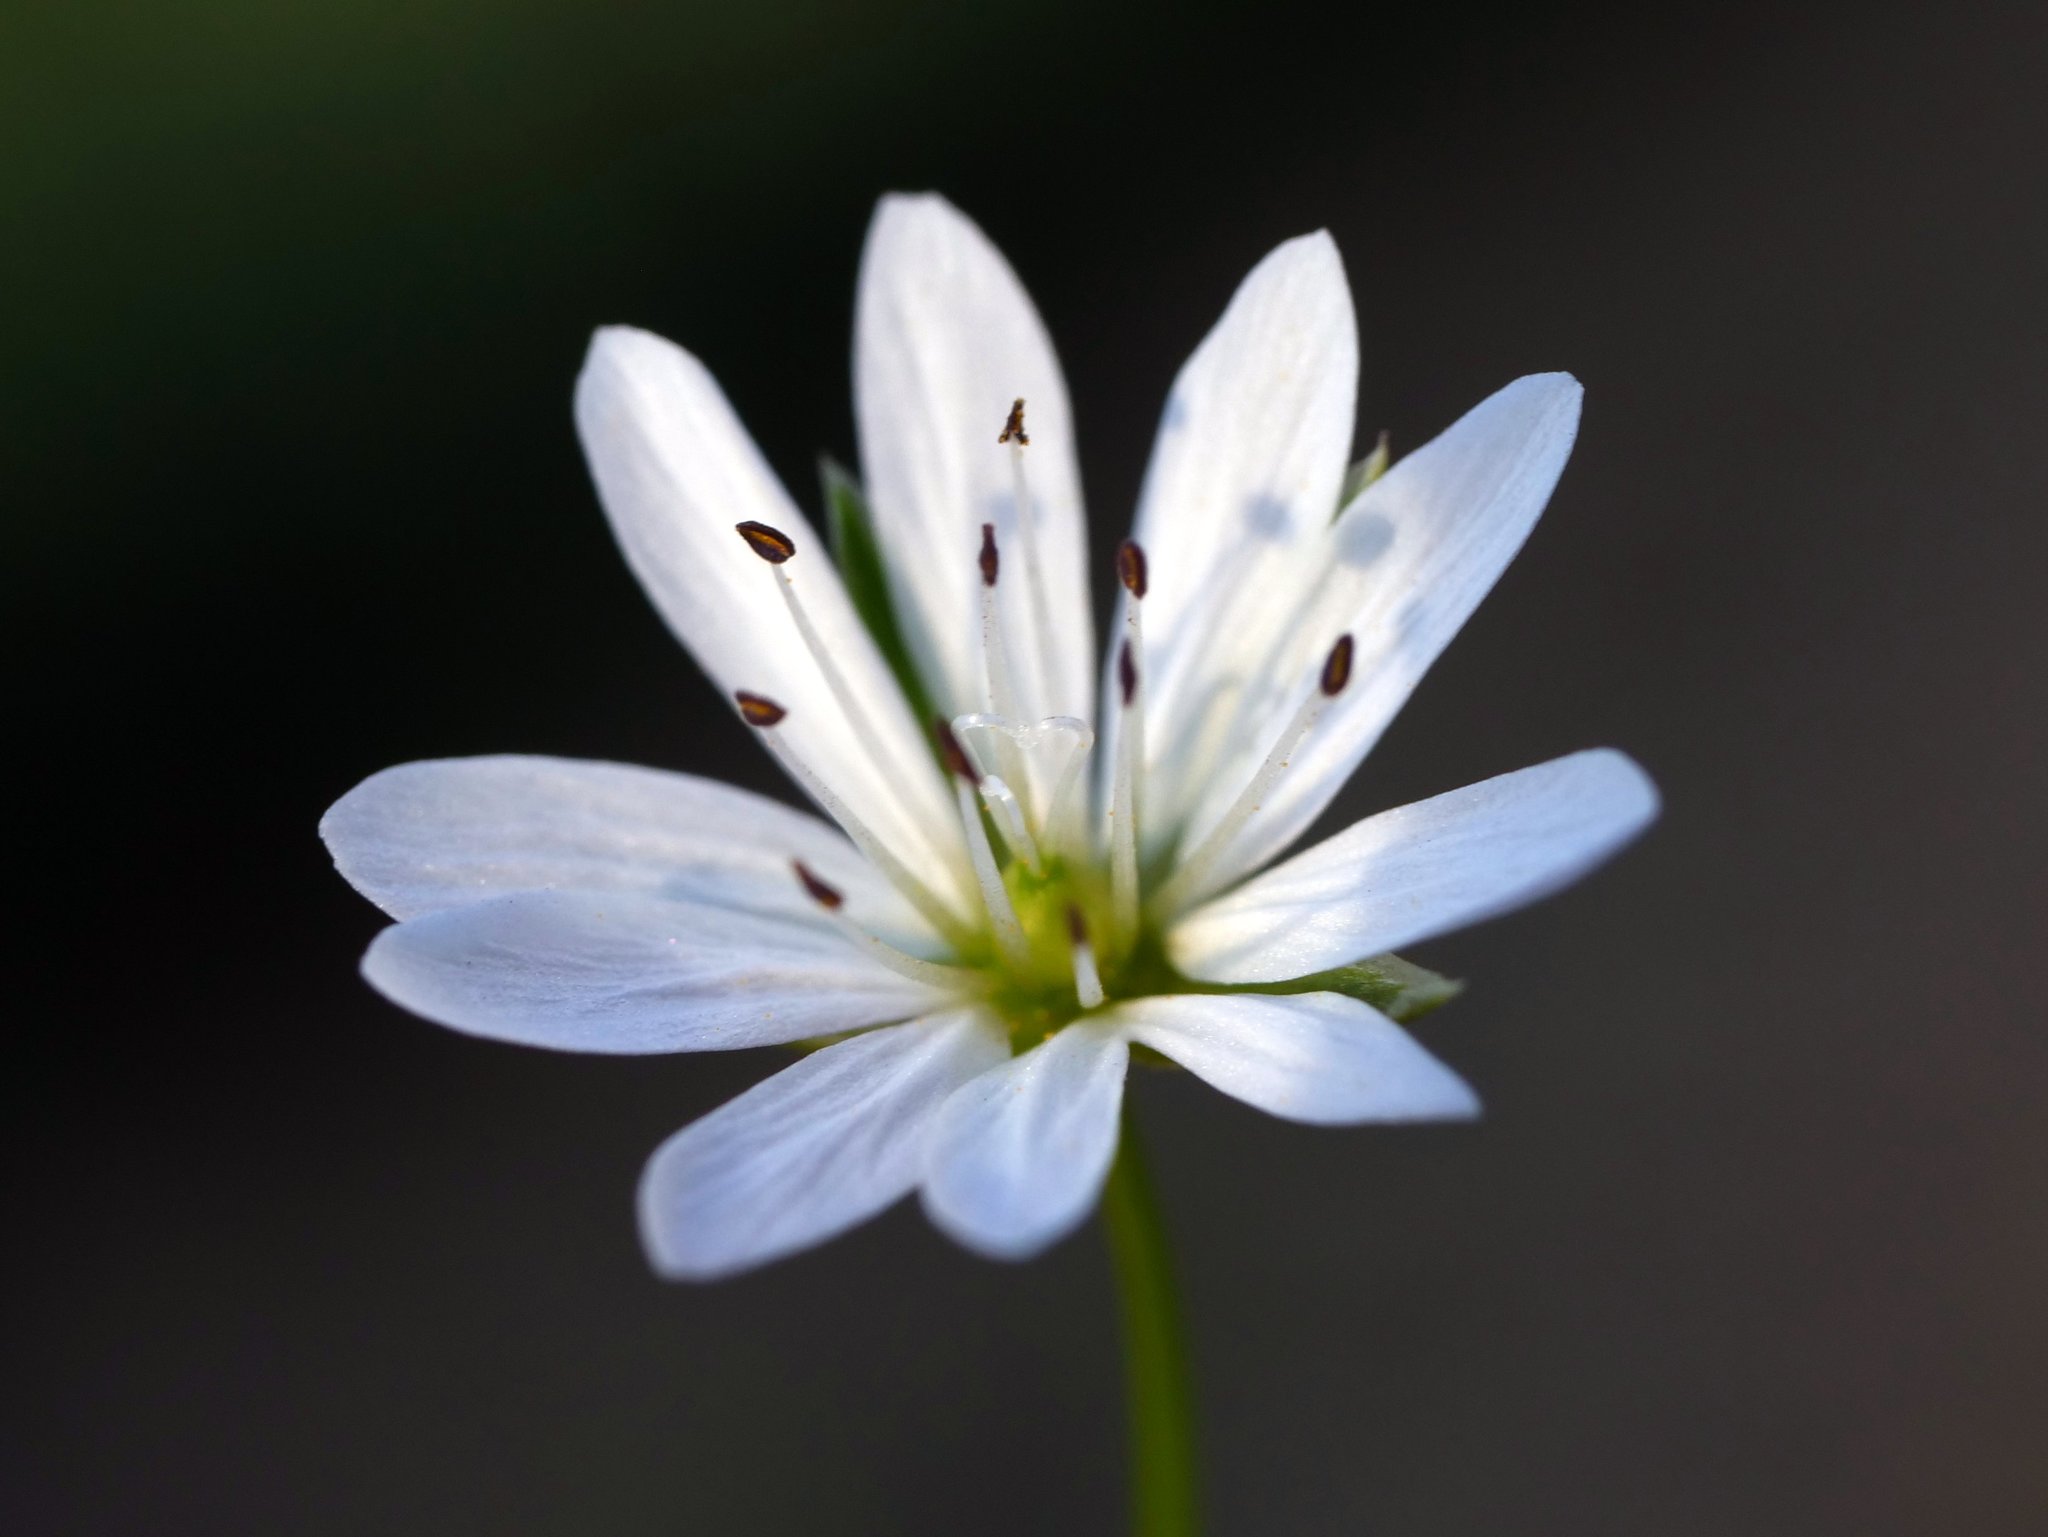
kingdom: Plantae
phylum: Tracheophyta
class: Magnoliopsida
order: Caryophyllales
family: Caryophyllaceae
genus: Stellaria
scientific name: Stellaria graminea
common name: Grass-like starwort
